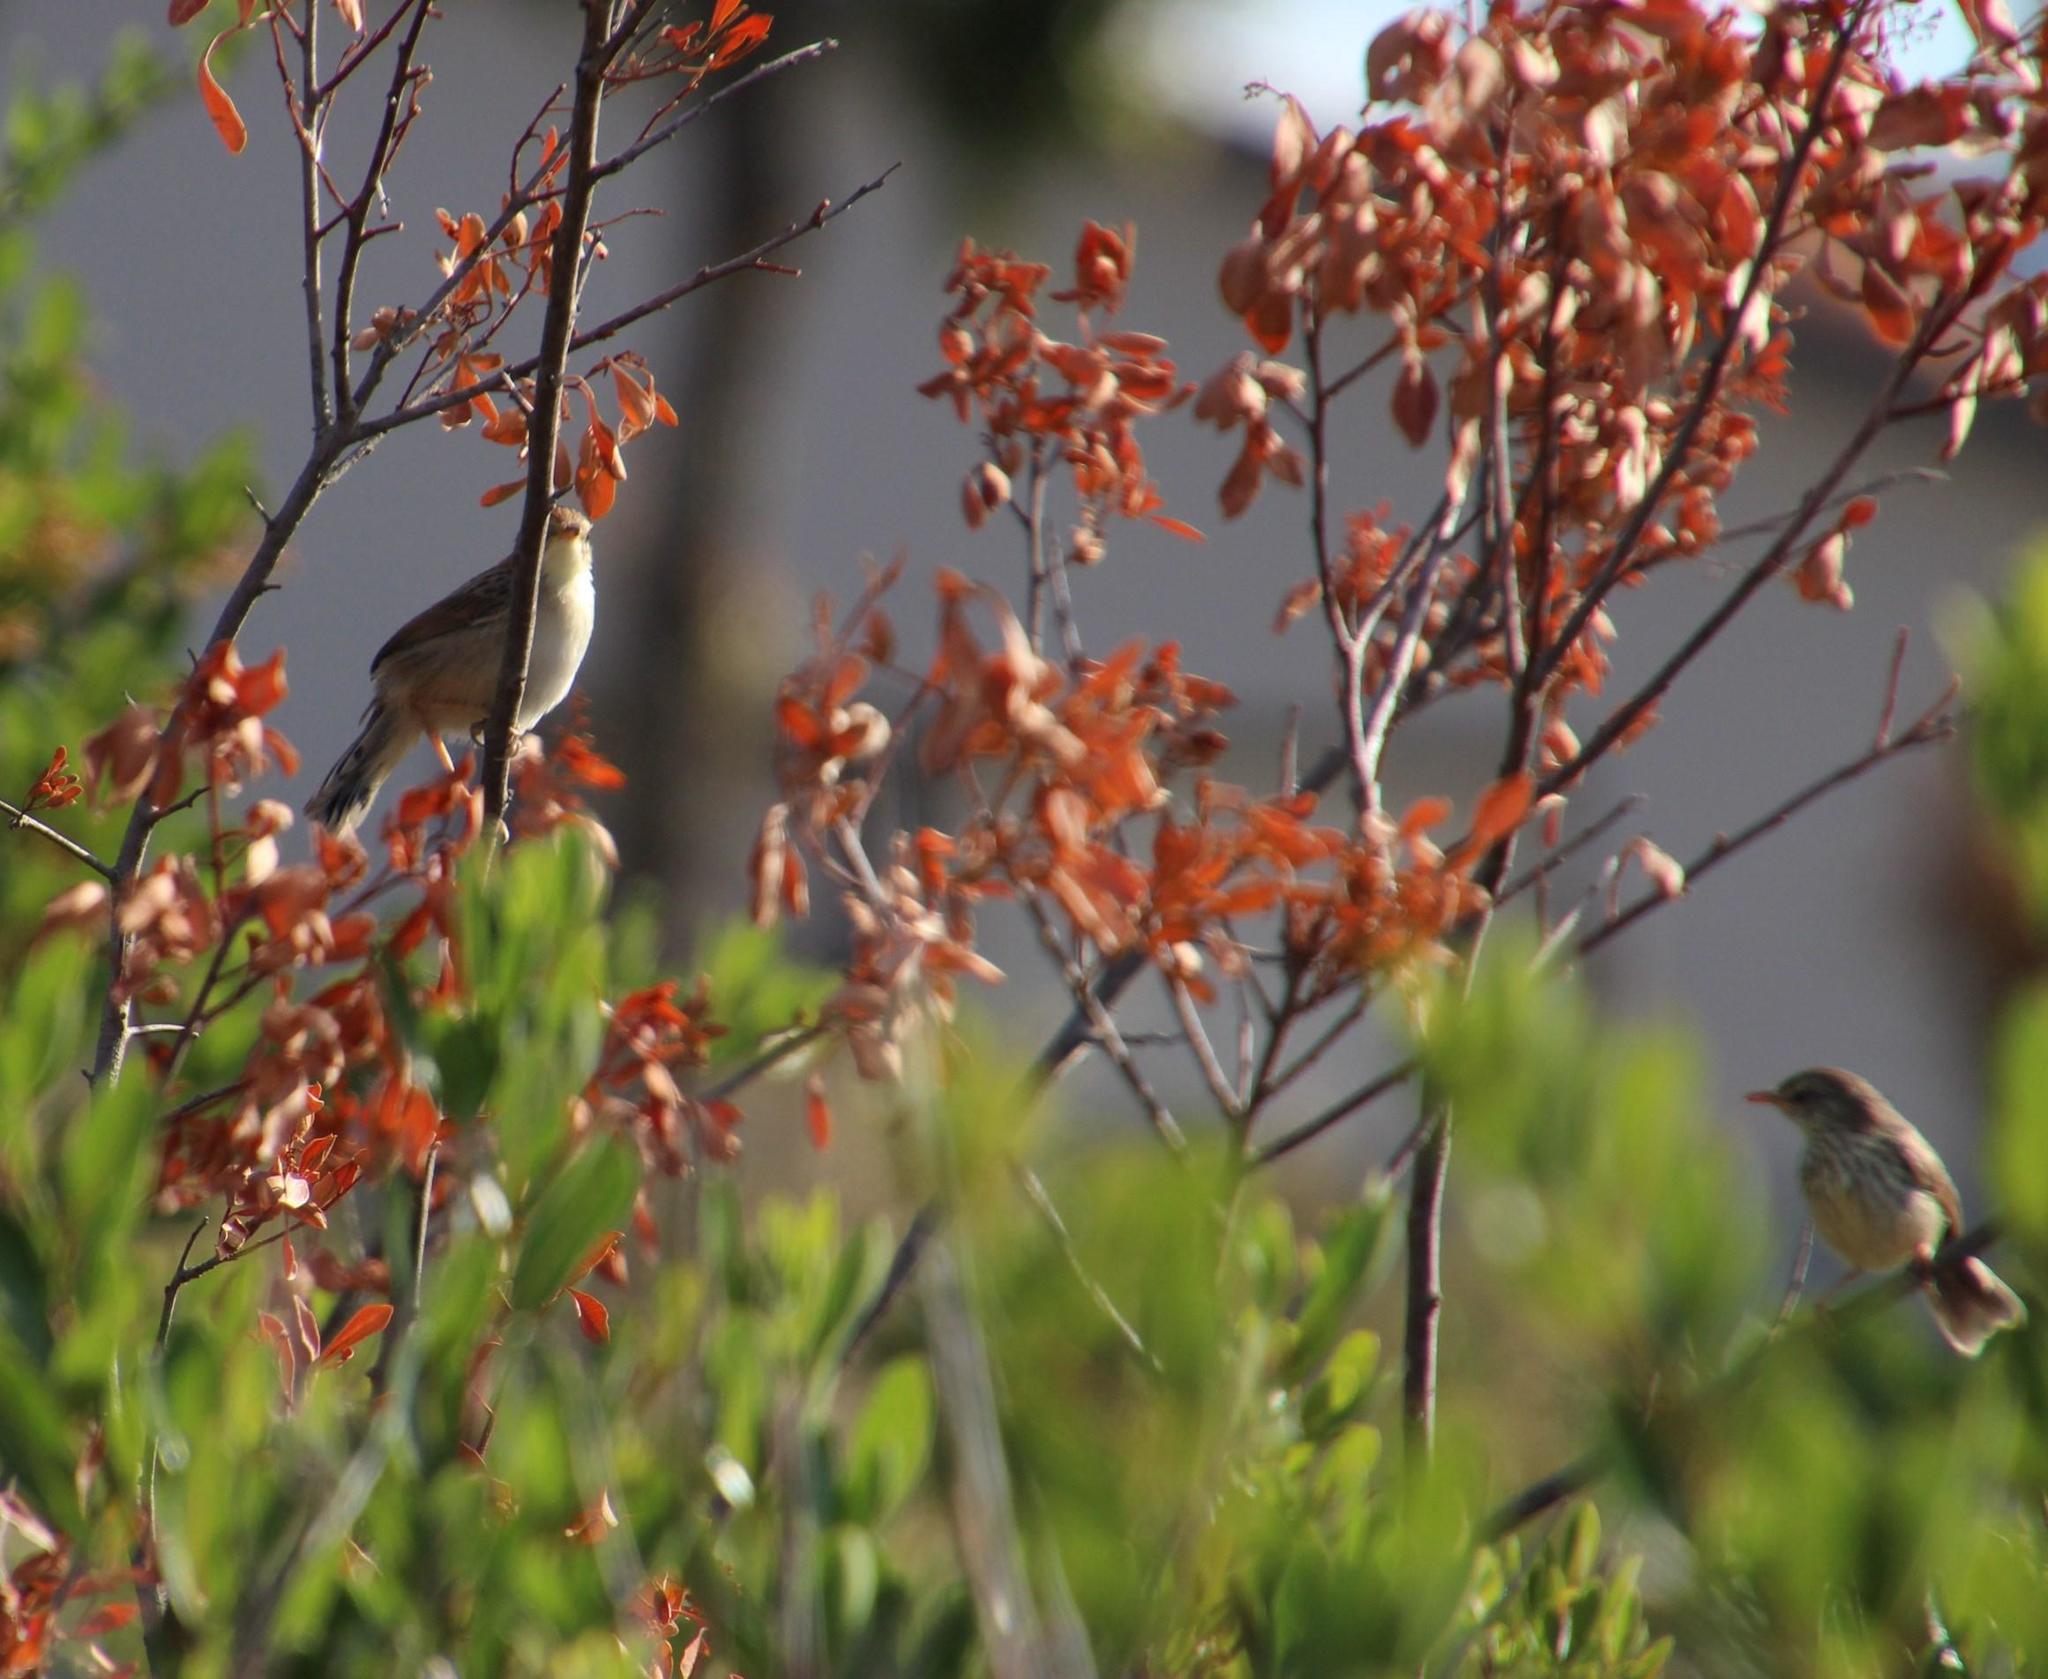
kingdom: Animalia
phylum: Chordata
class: Aves
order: Passeriformes
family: Cisticolidae
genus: Prinia
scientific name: Prinia maculosa
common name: Karoo prinia
